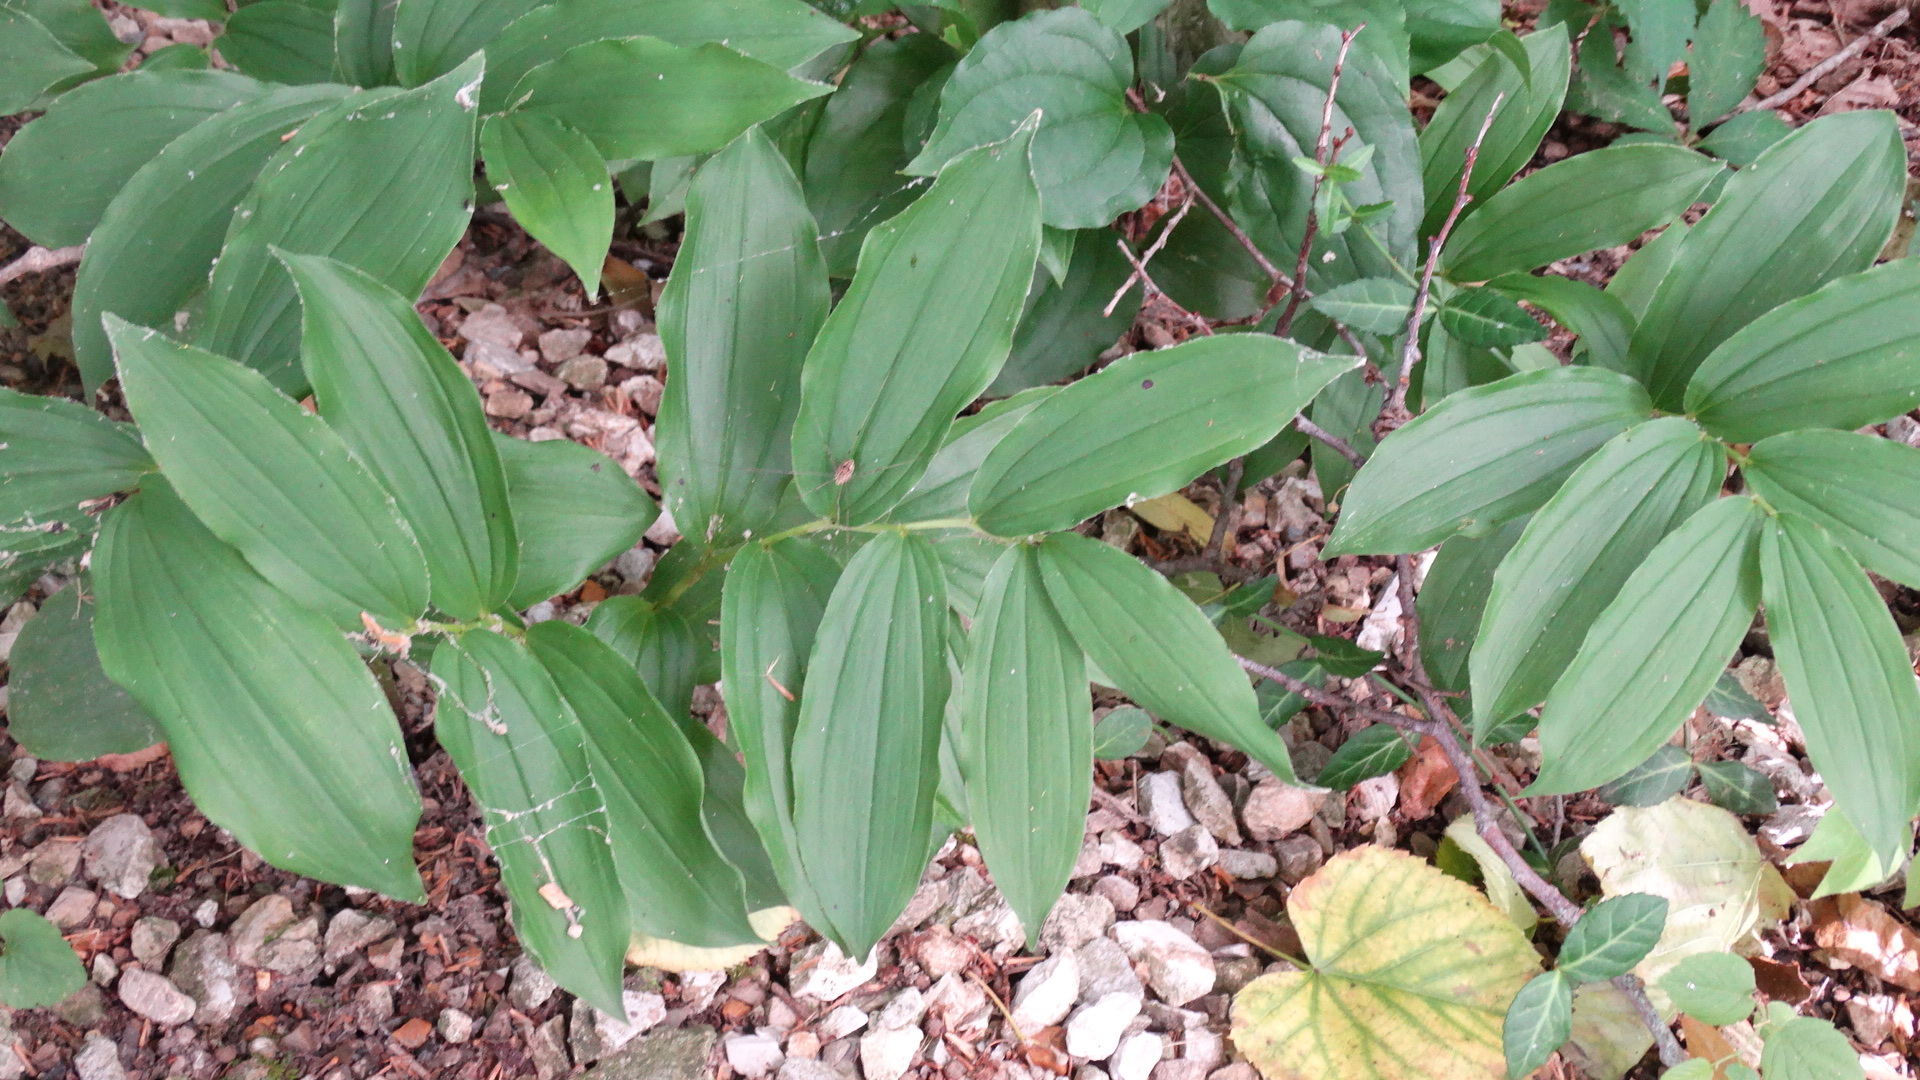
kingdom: Plantae
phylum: Tracheophyta
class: Liliopsida
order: Asparagales
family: Asparagaceae
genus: Maianthemum
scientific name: Maianthemum racemosum
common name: False spikenard
